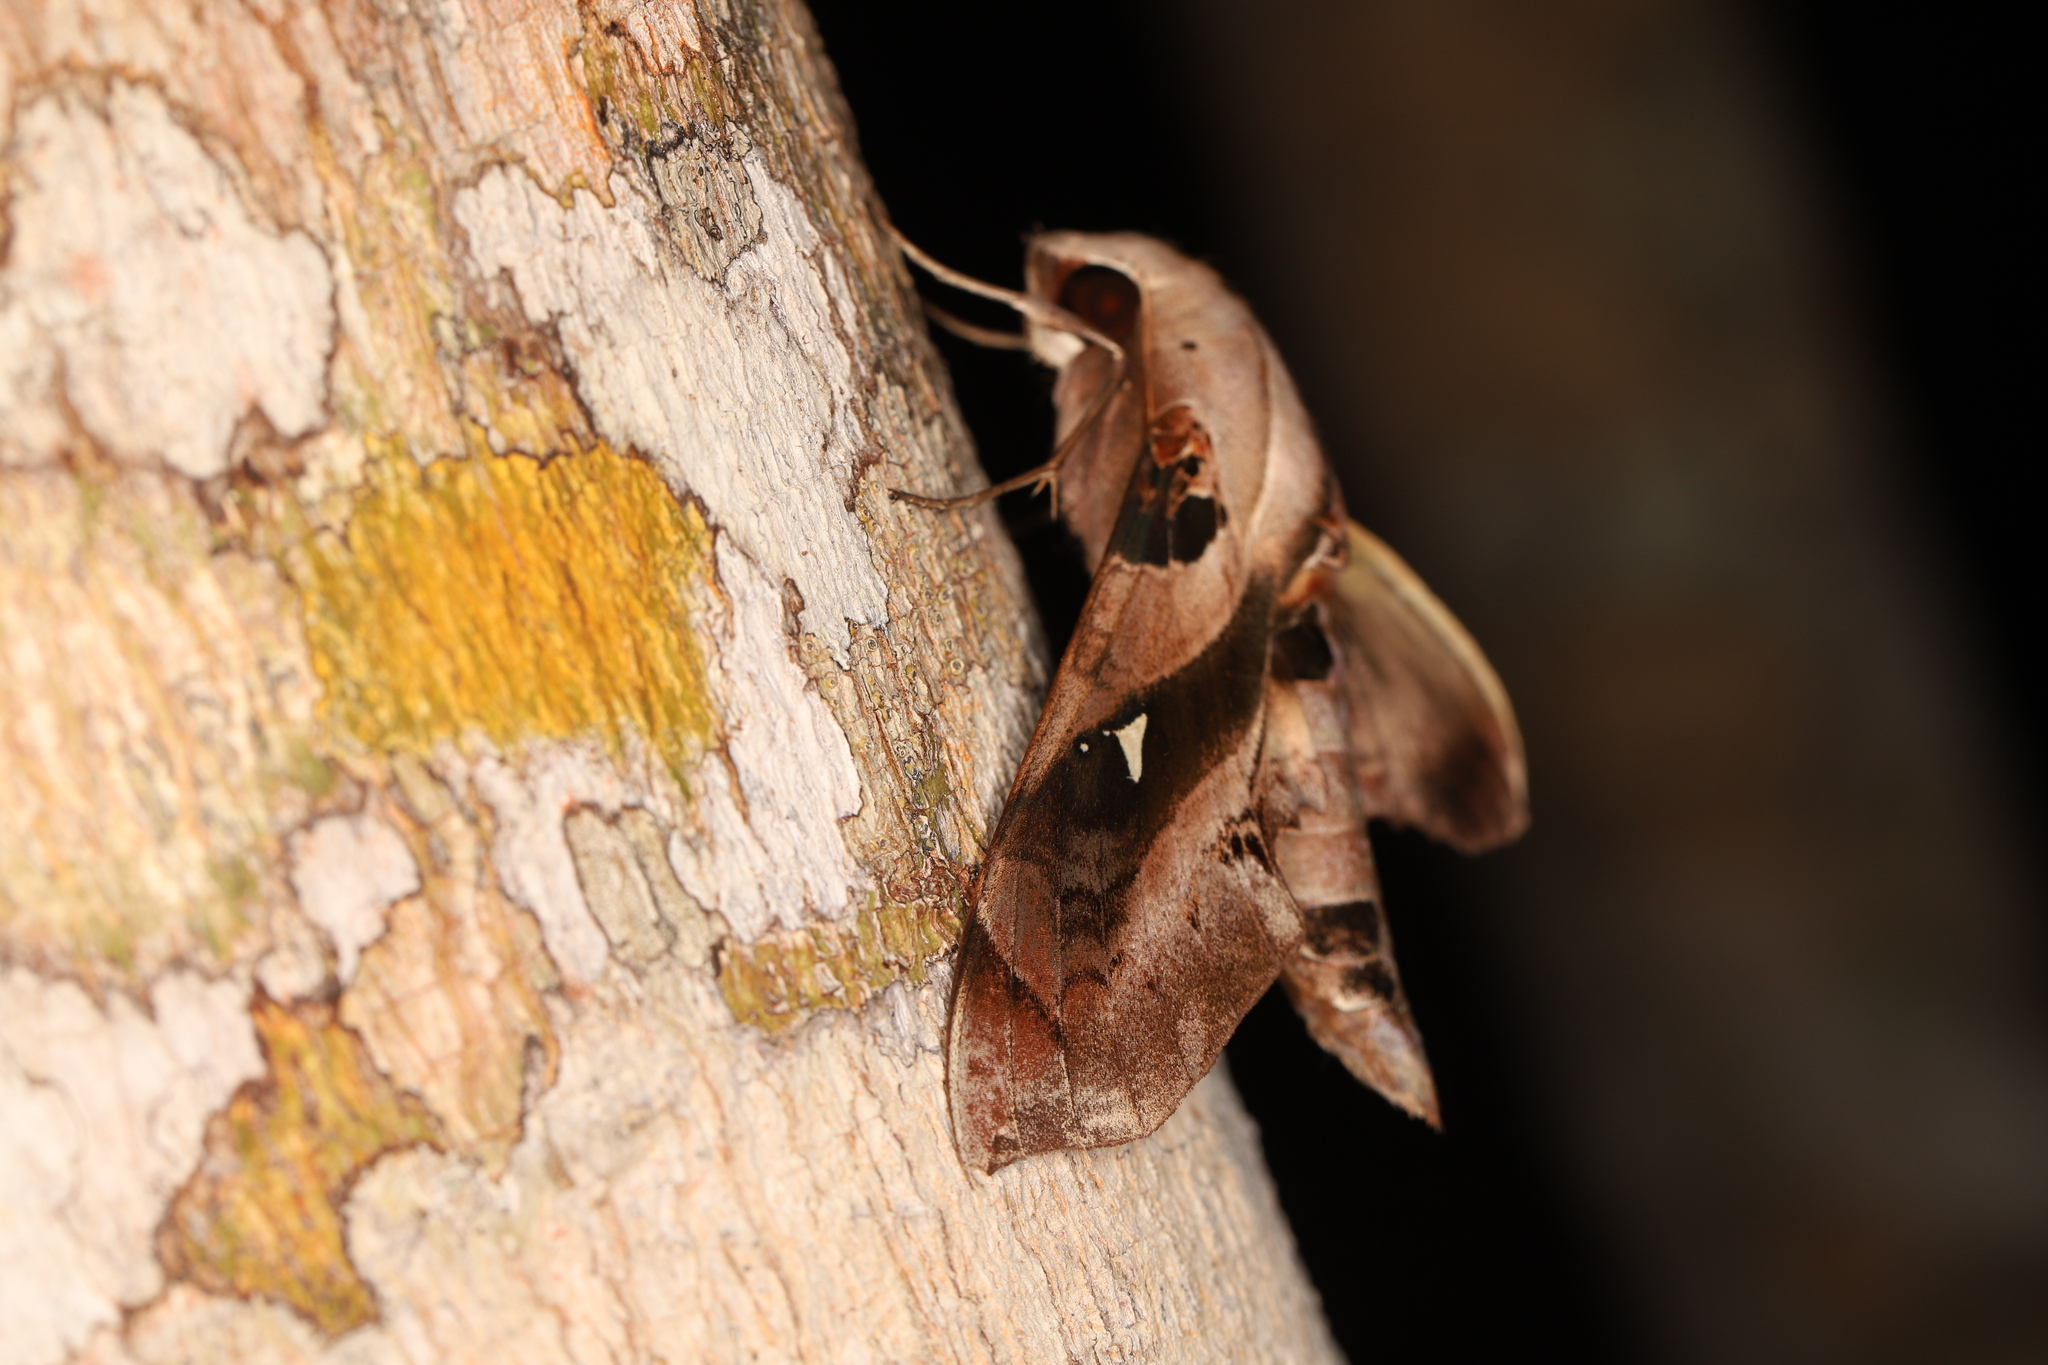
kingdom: Animalia
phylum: Arthropoda
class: Insecta
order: Lepidoptera
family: Sphingidae
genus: Madoryx
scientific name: Madoryx plutonius
